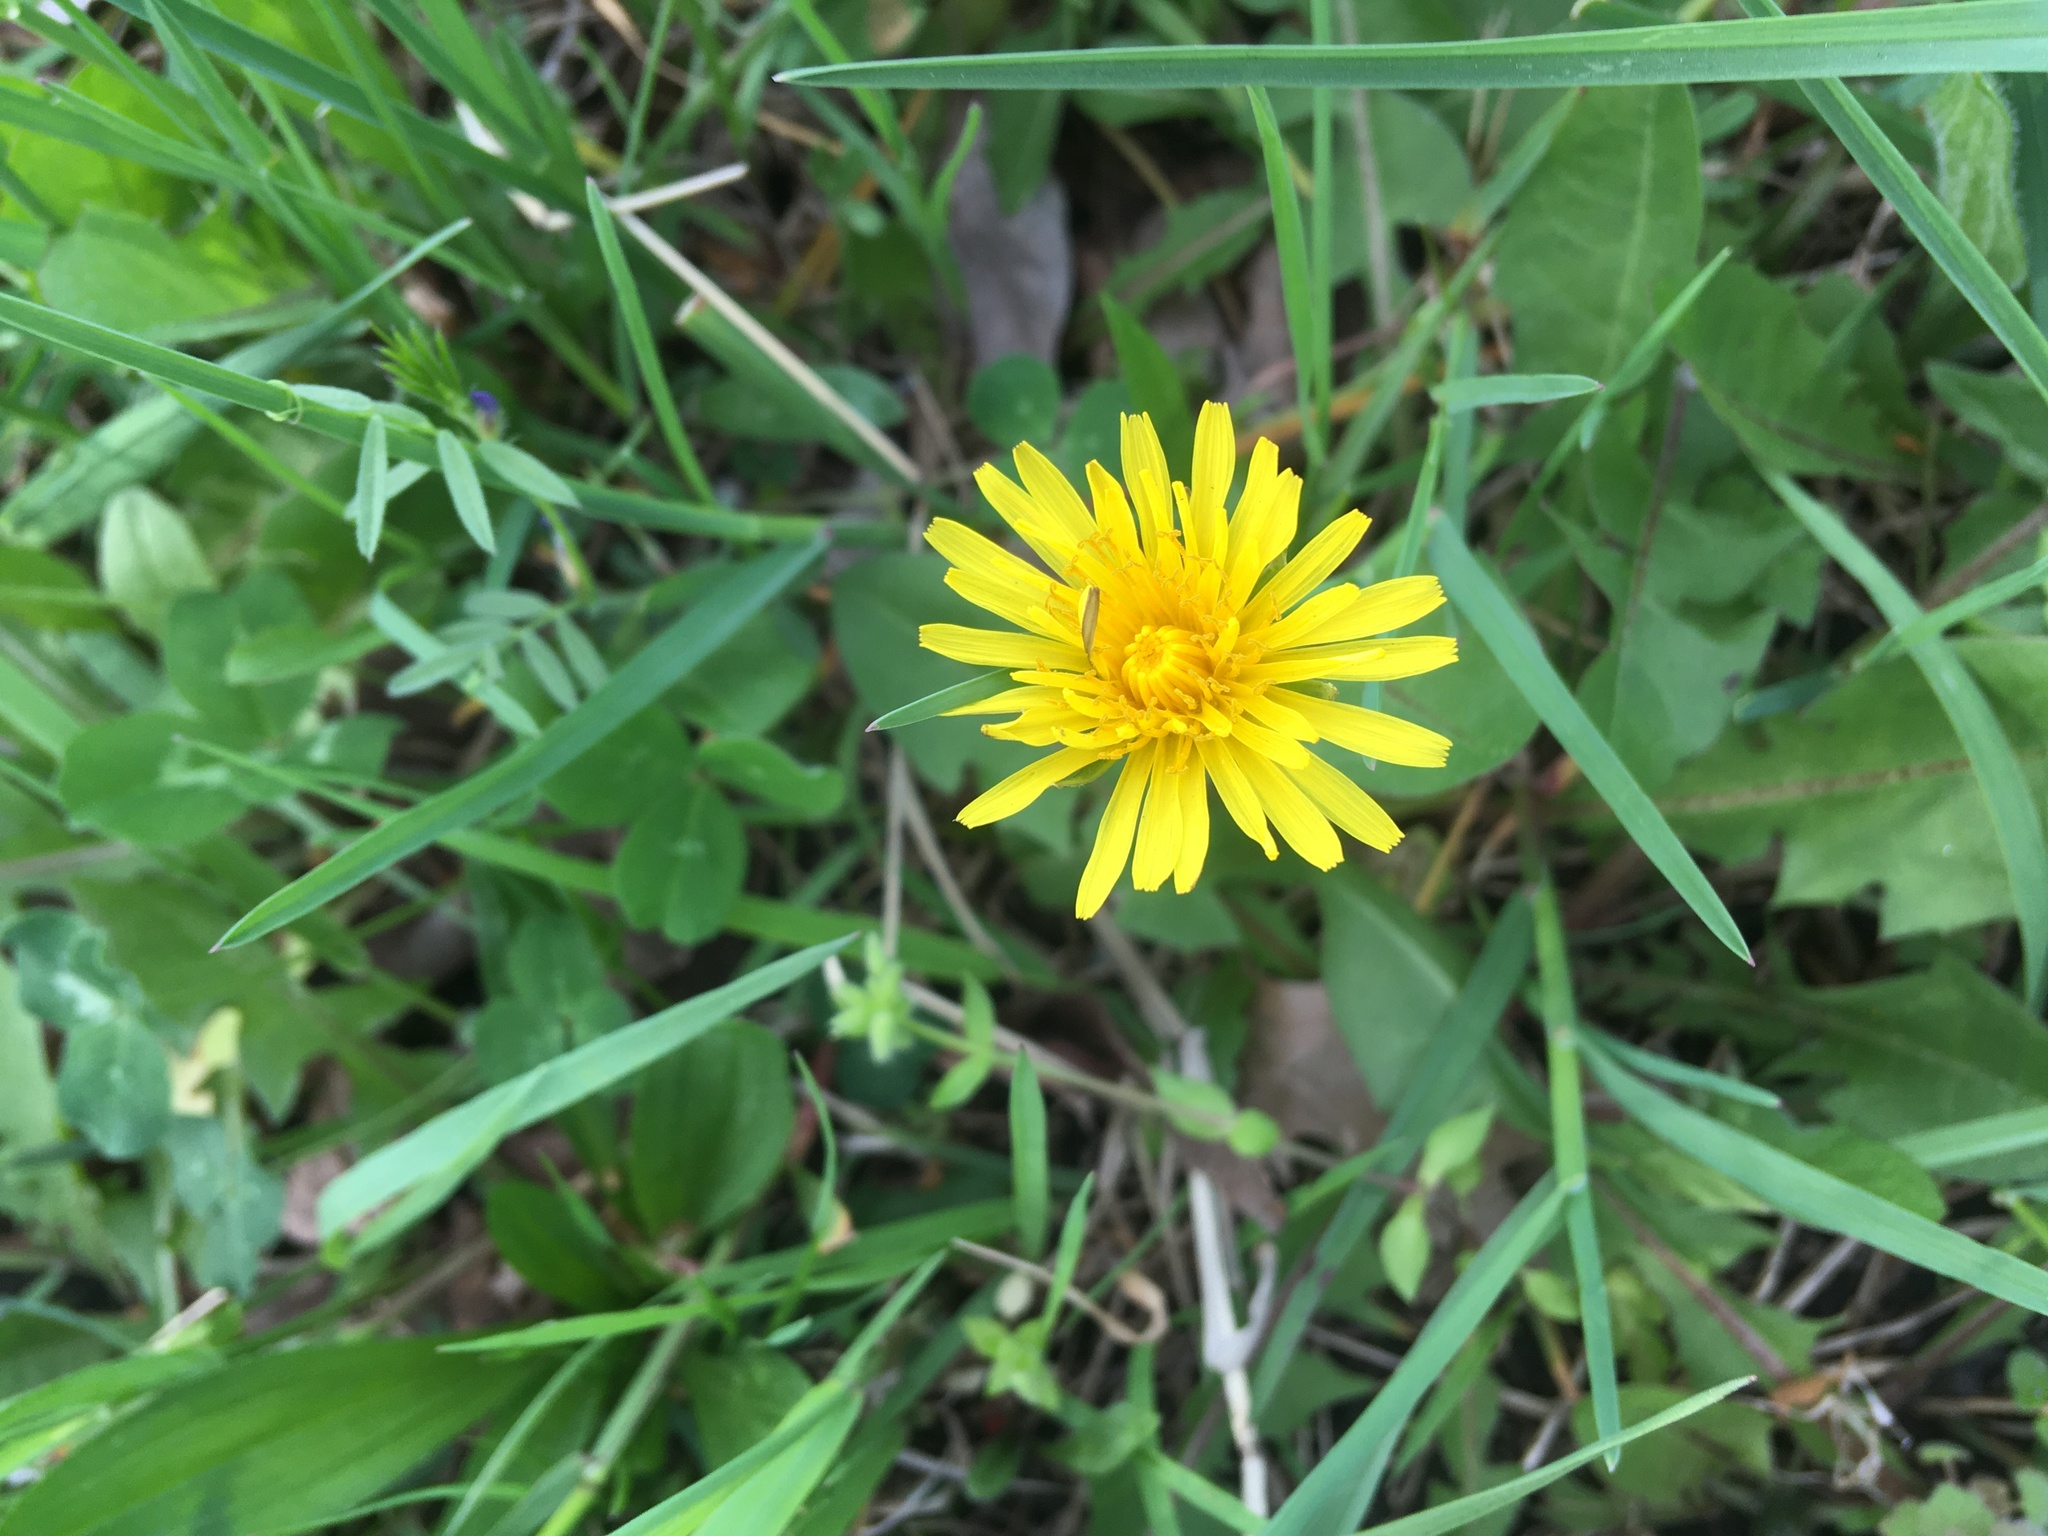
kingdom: Plantae
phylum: Tracheophyta
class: Magnoliopsida
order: Asterales
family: Asteraceae
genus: Taraxacum
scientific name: Taraxacum officinale
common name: Common dandelion
